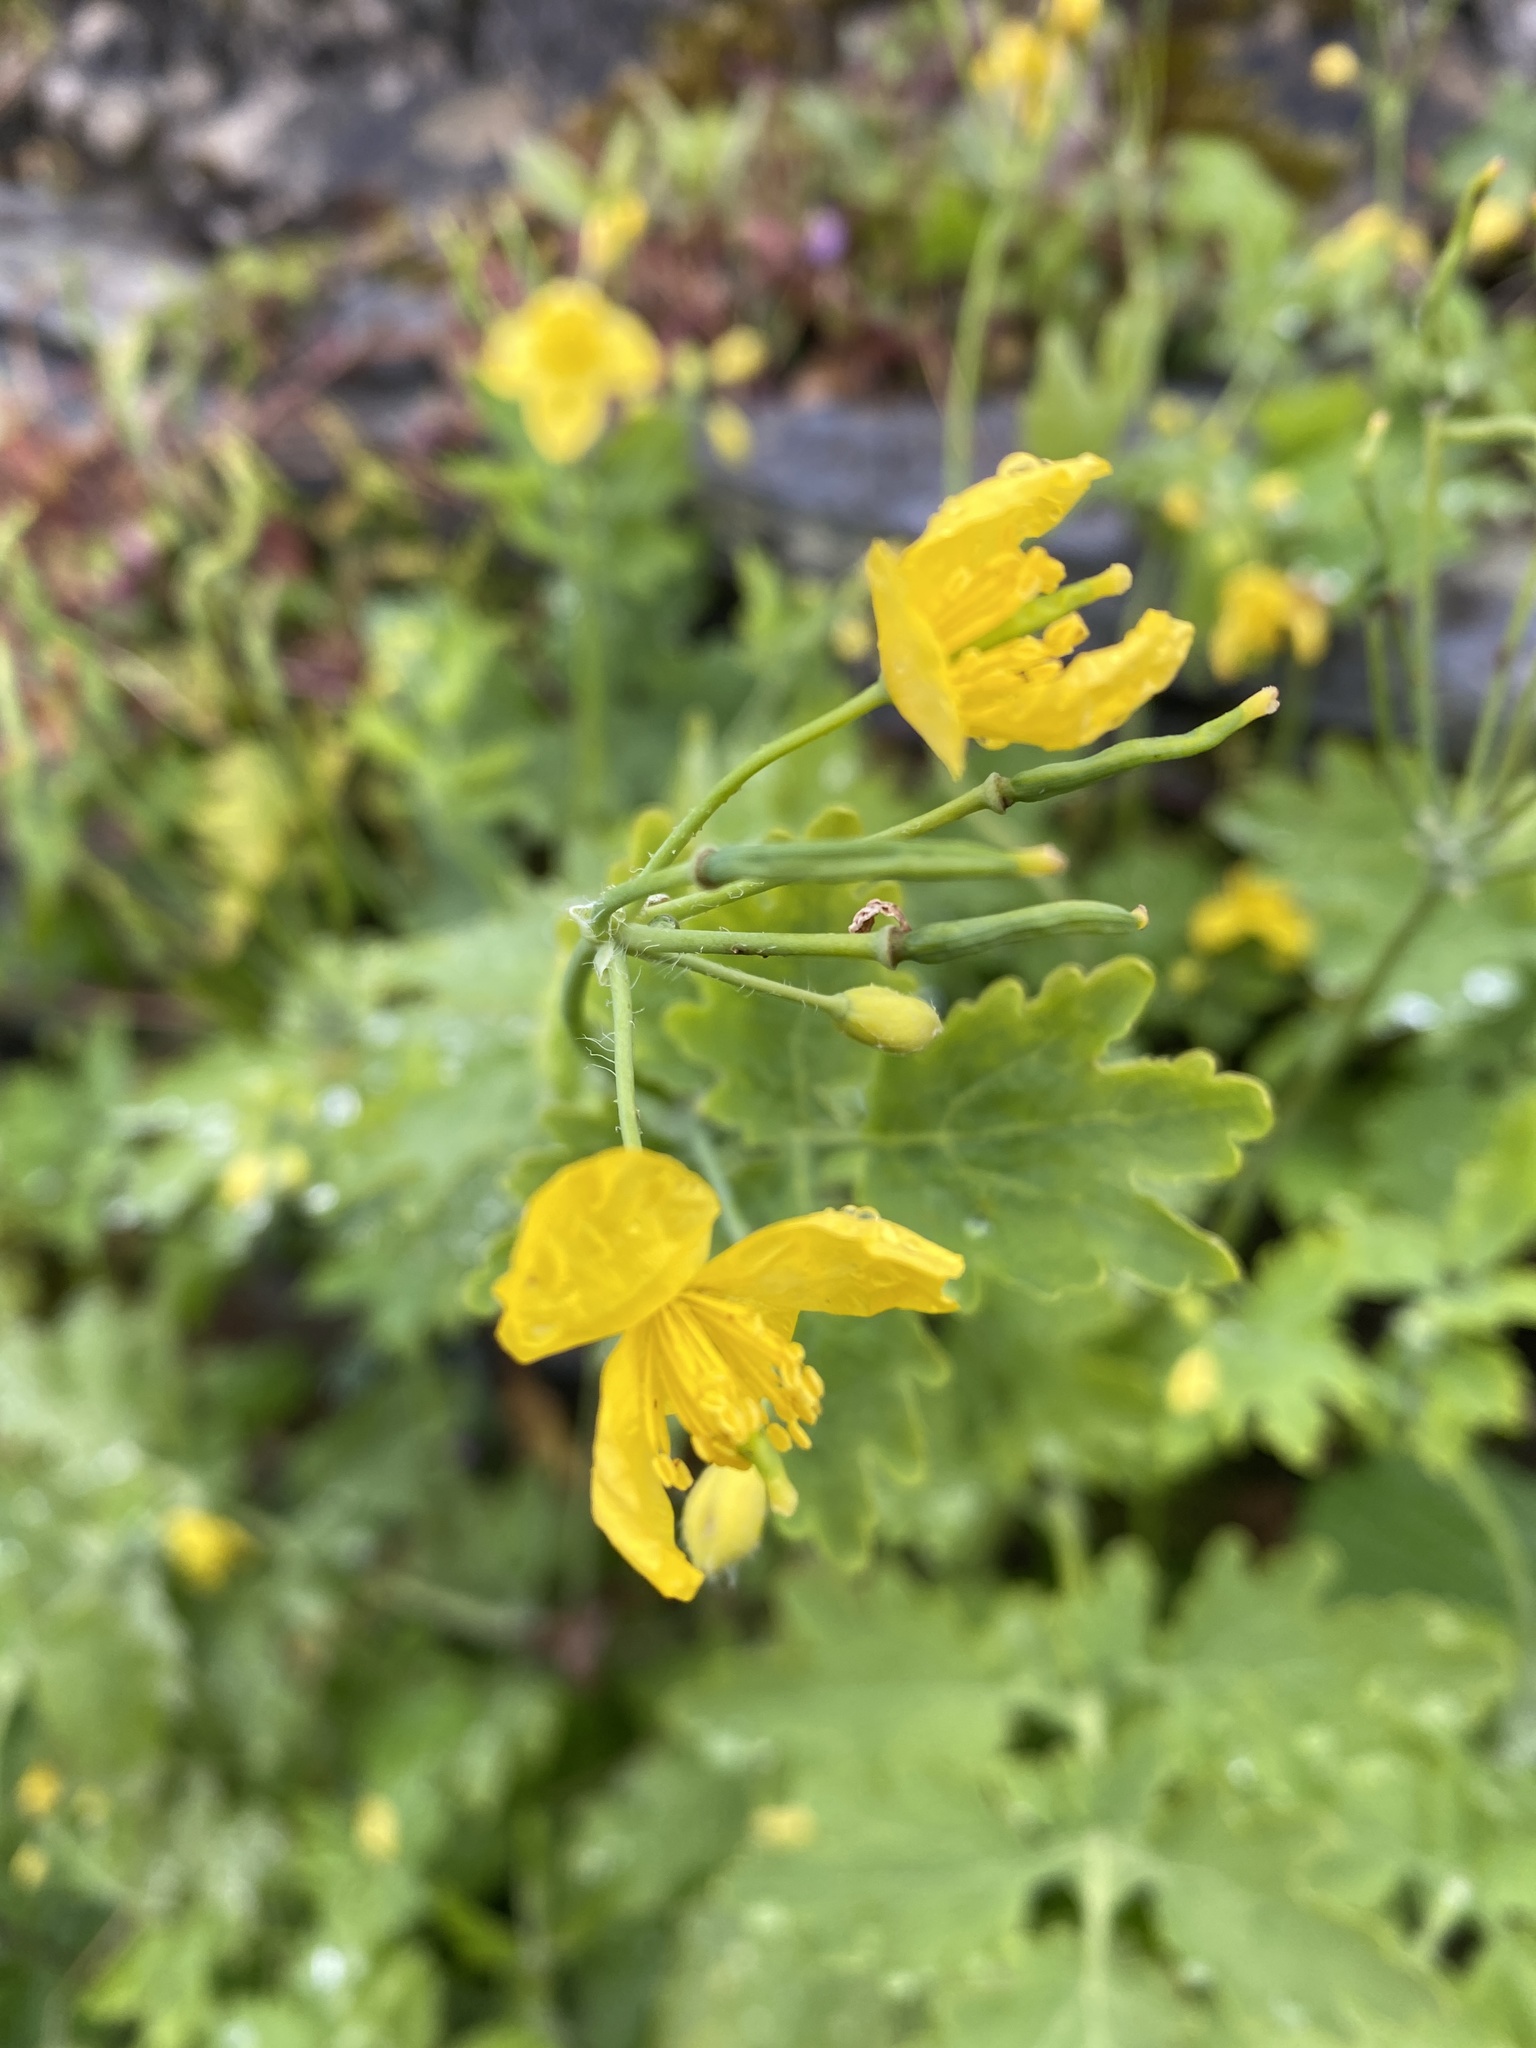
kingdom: Plantae
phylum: Tracheophyta
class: Magnoliopsida
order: Ranunculales
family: Papaveraceae
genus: Chelidonium
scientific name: Chelidonium majus
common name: Greater celandine
